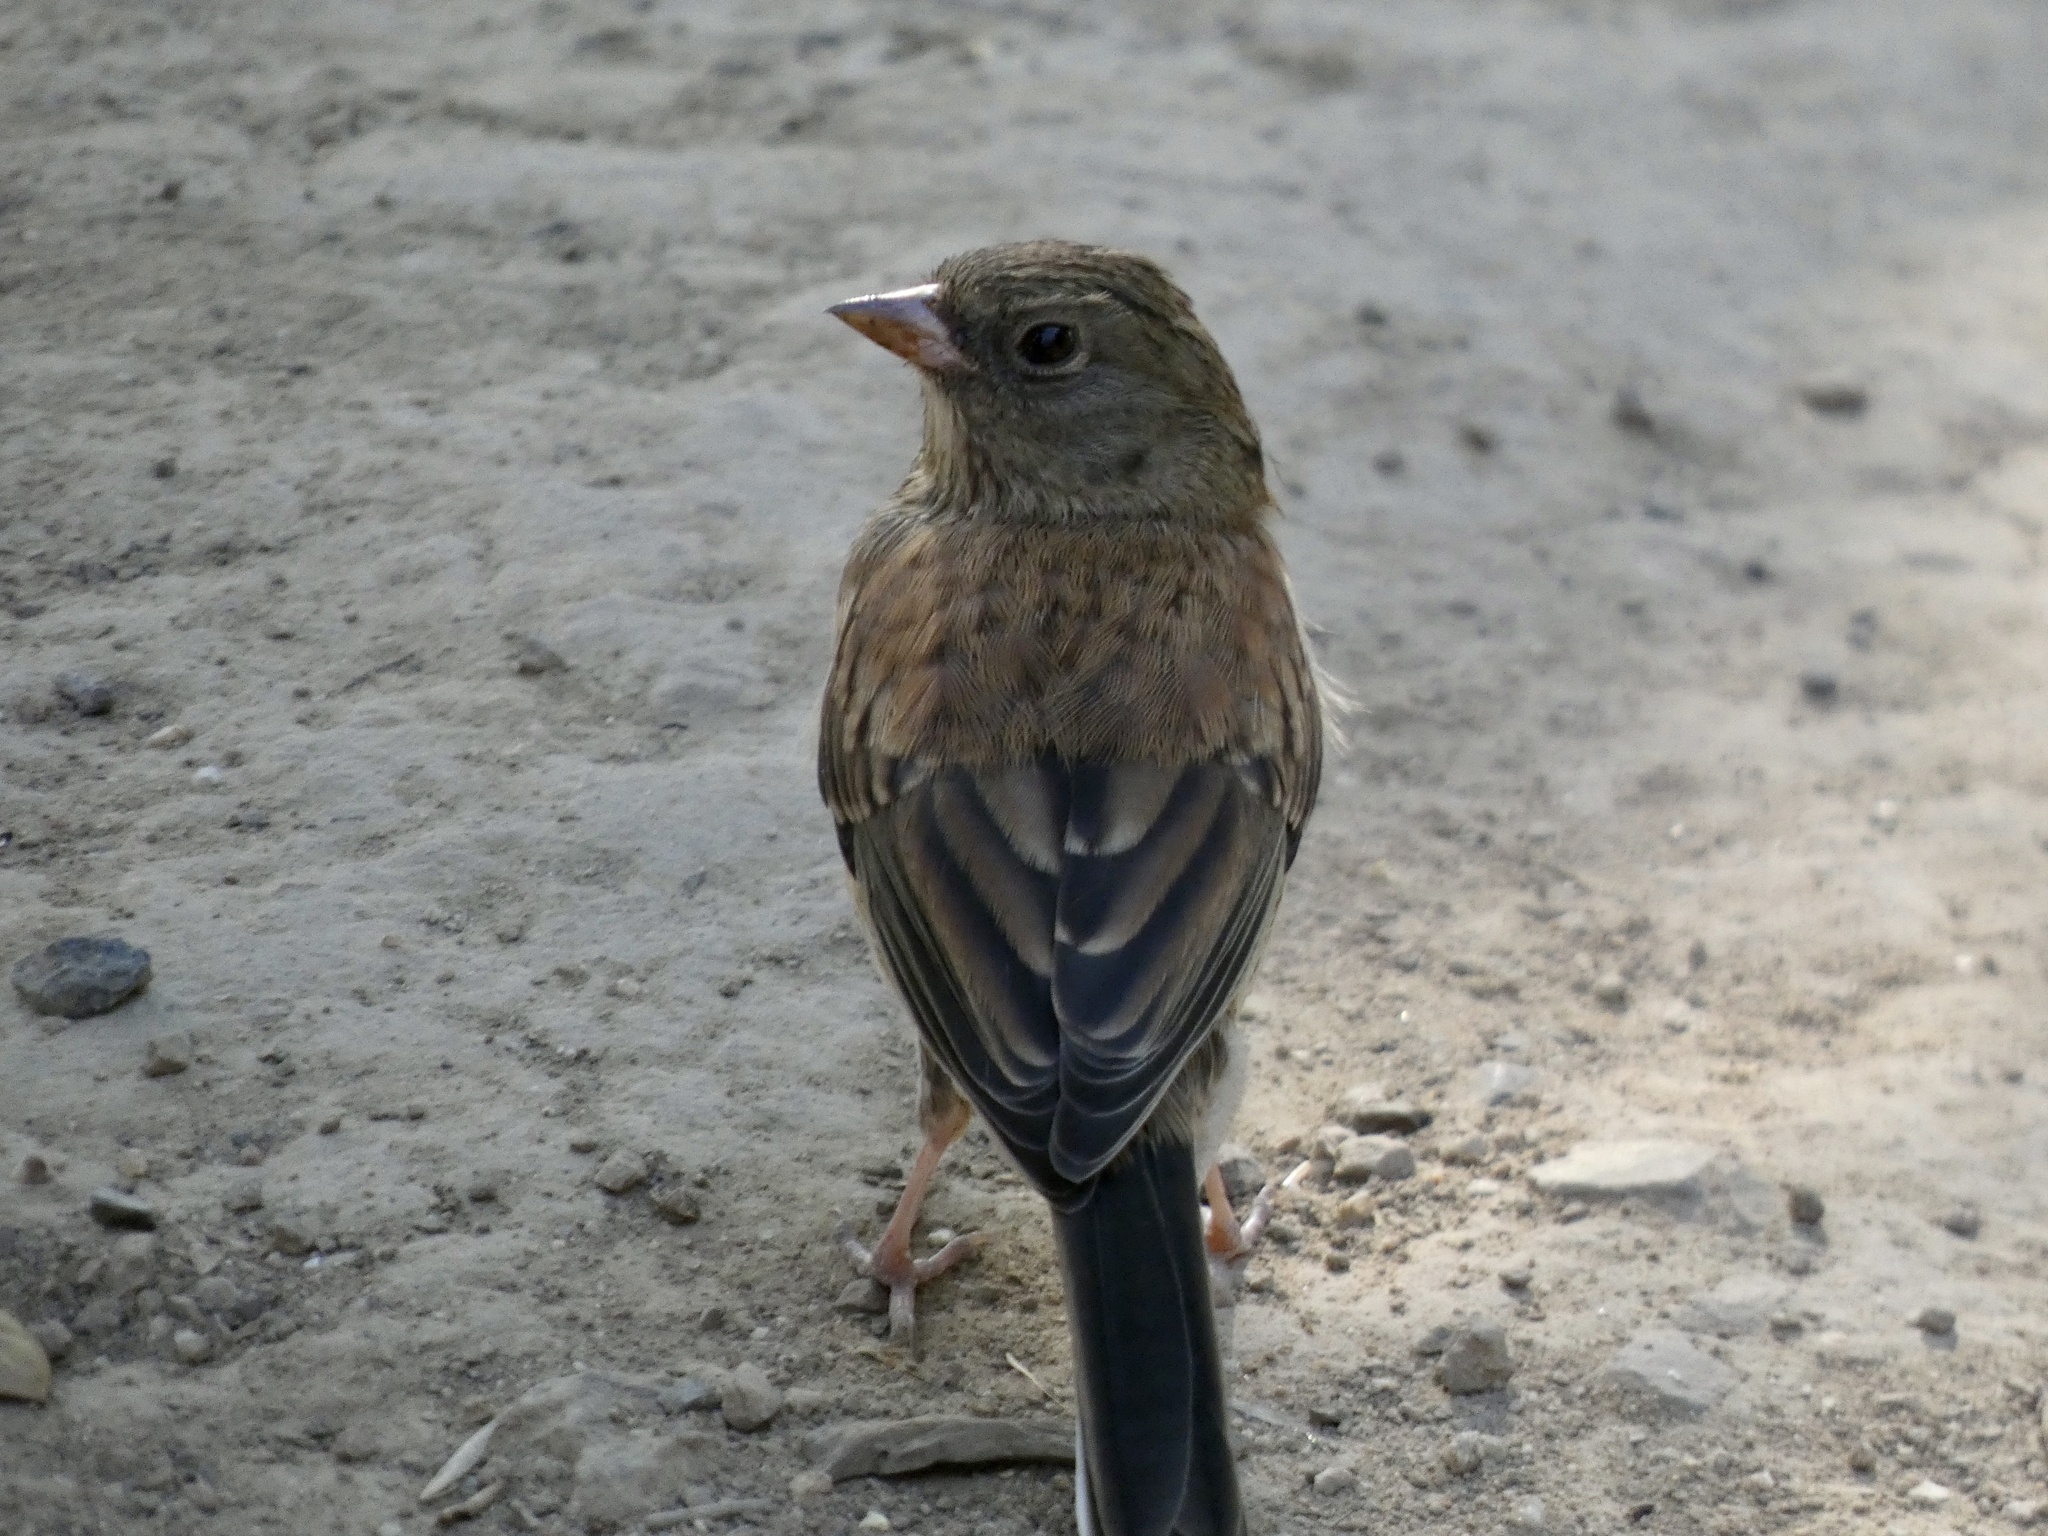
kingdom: Animalia
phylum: Chordata
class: Aves
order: Passeriformes
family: Passerellidae
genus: Junco
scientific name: Junco hyemalis
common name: Dark-eyed junco
